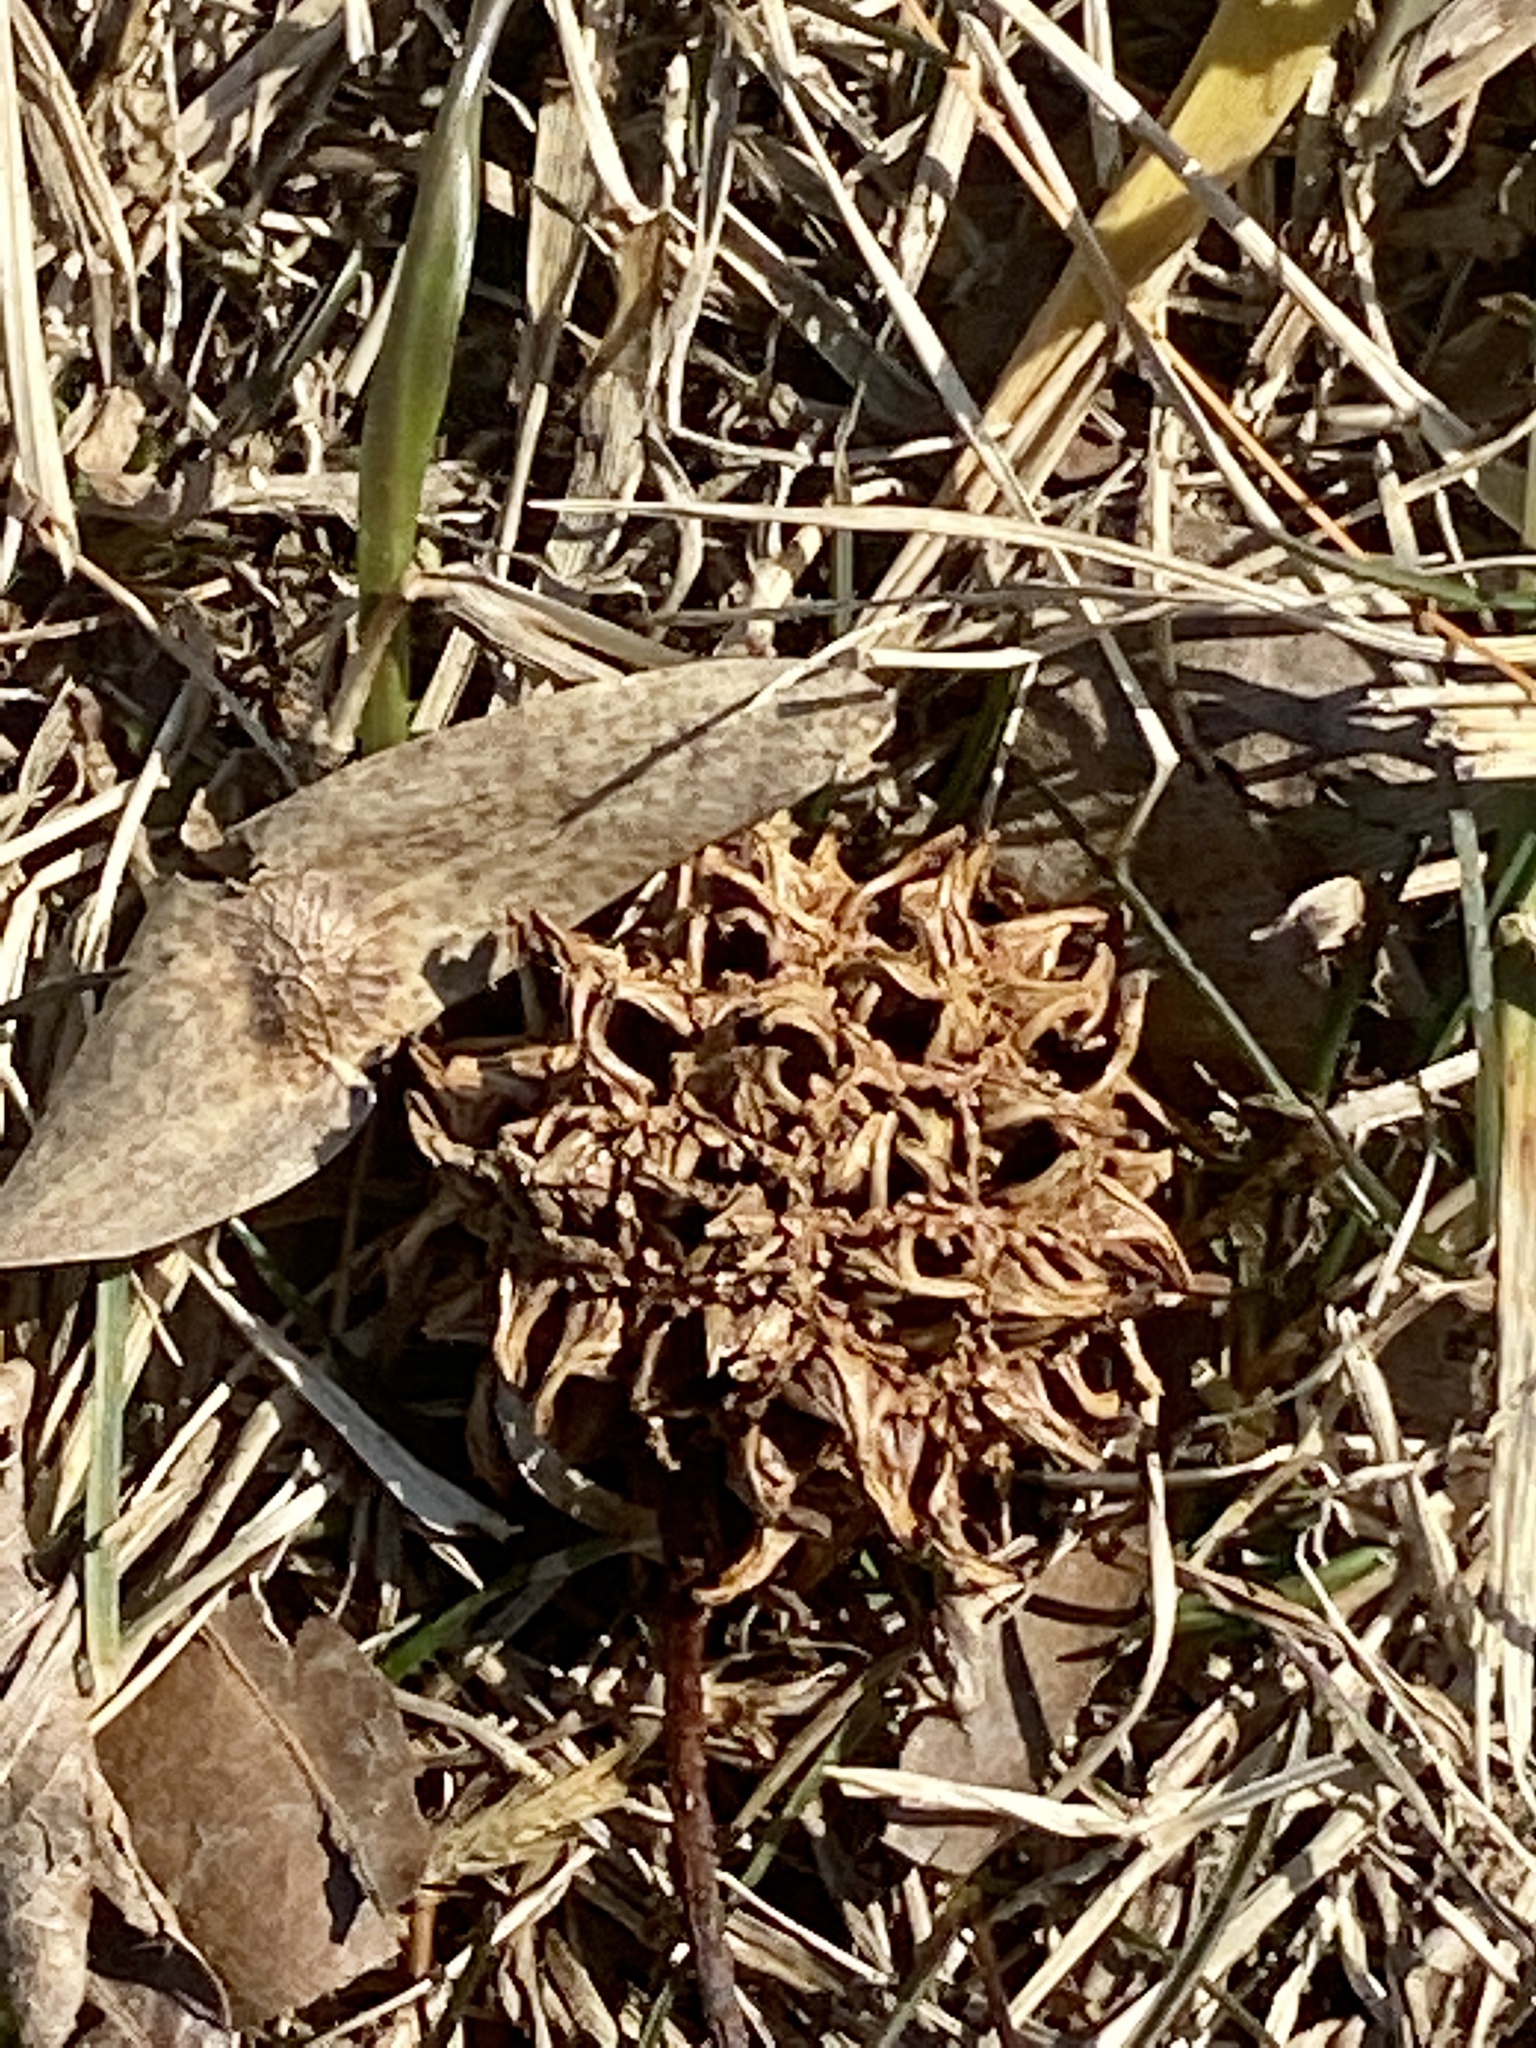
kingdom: Plantae
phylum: Tracheophyta
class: Magnoliopsida
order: Saxifragales
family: Altingiaceae
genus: Liquidambar
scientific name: Liquidambar styraciflua
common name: Sweet gum
